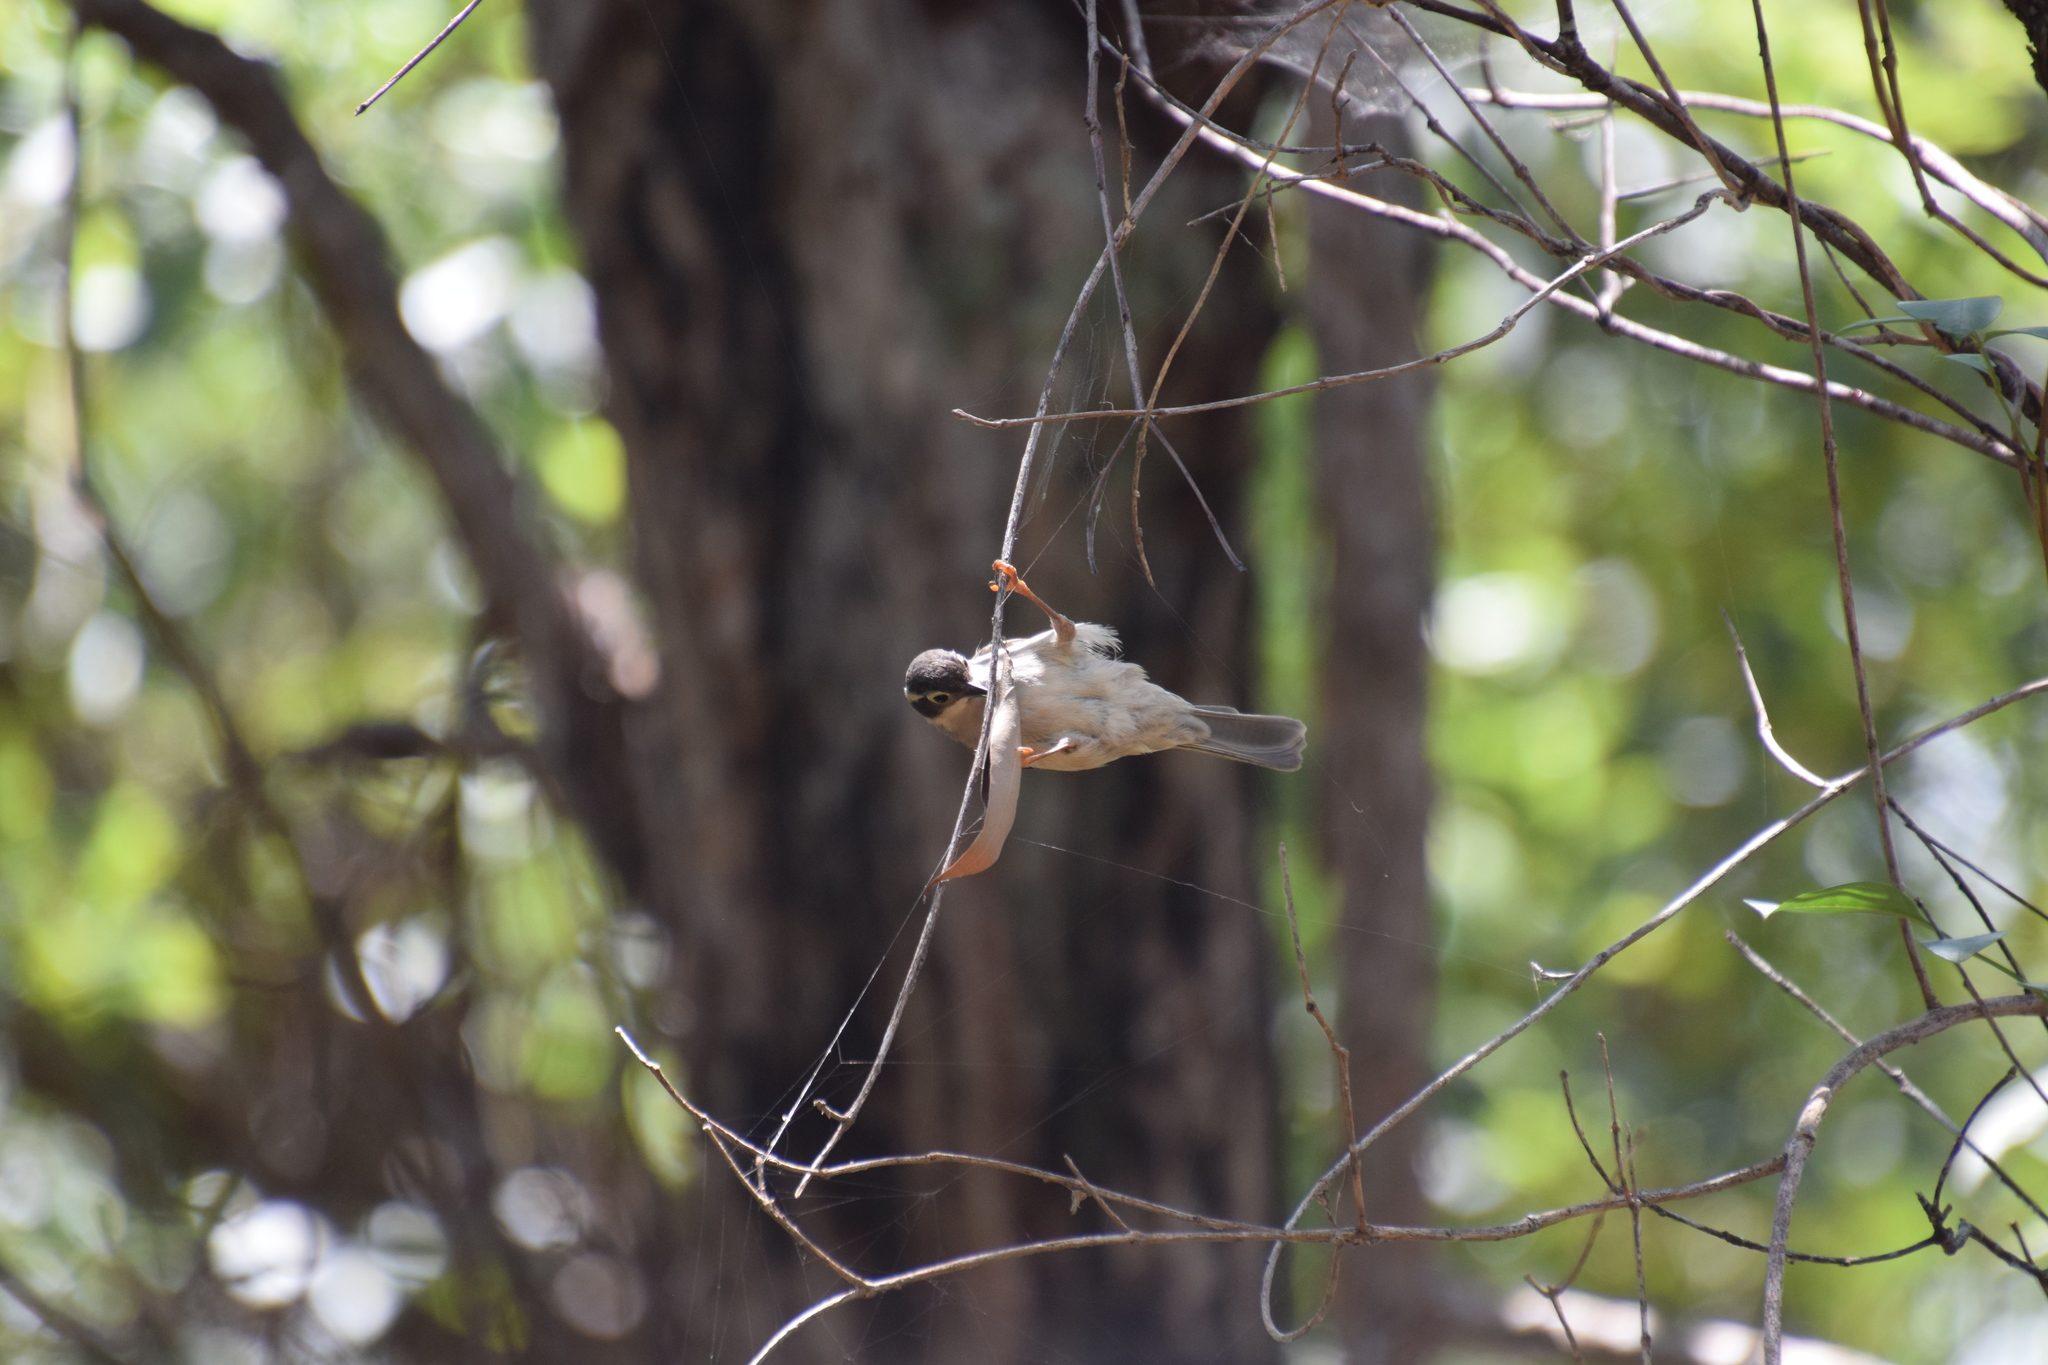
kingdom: Animalia
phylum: Chordata
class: Aves
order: Passeriformes
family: Meliphagidae
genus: Melithreptus
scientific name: Melithreptus brevirostris
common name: Brown-headed honeyeater
